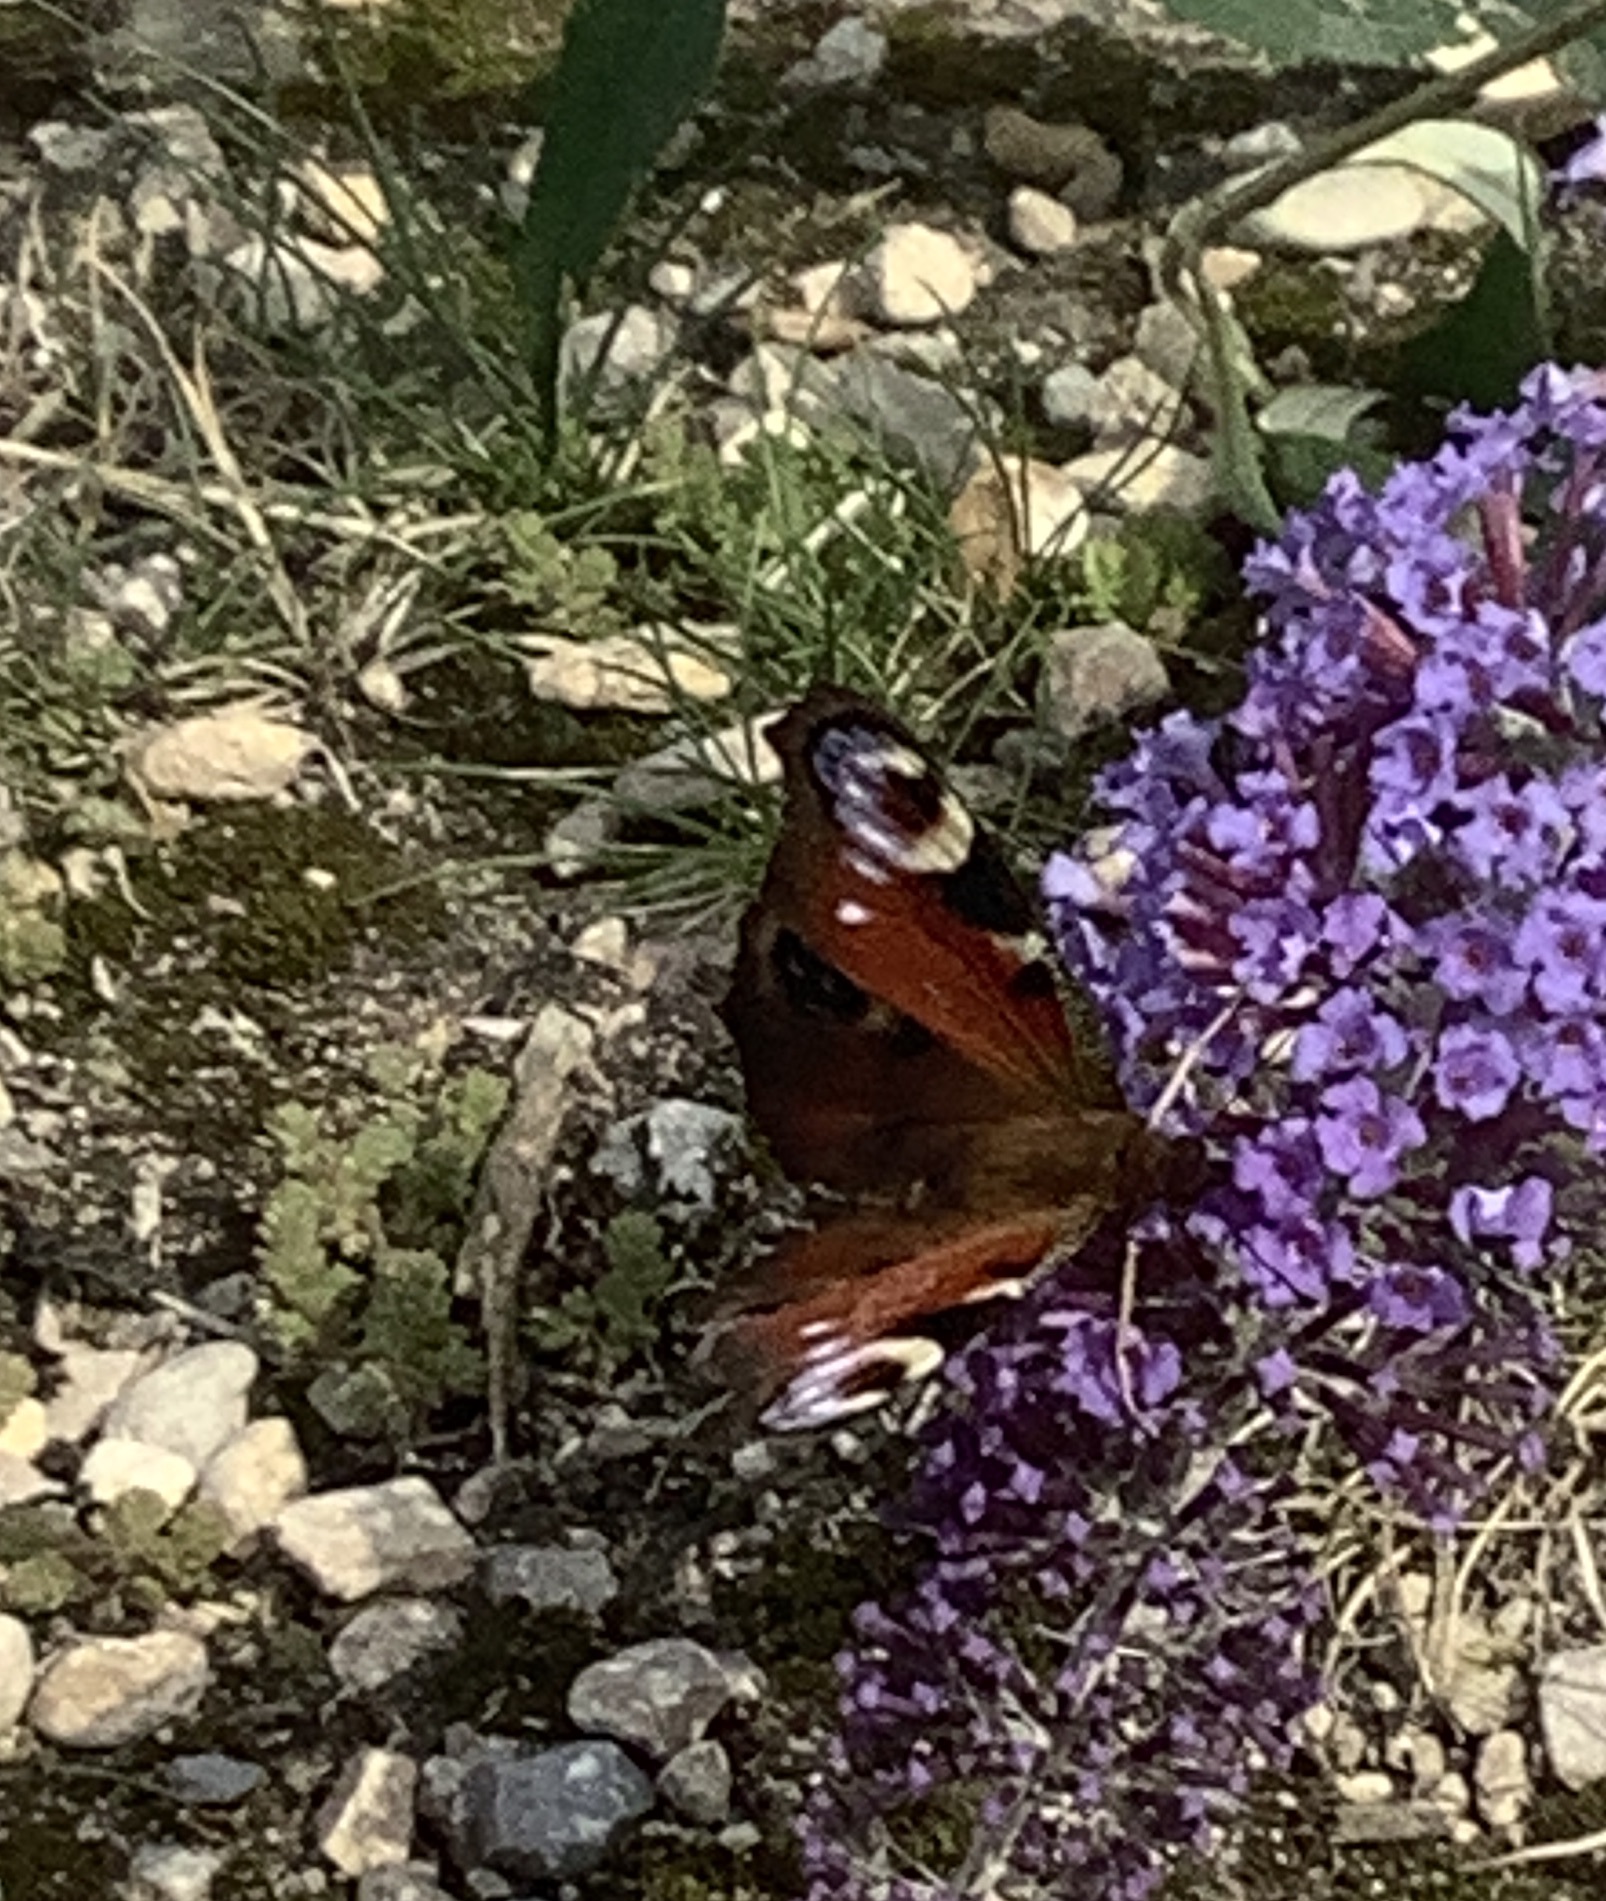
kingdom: Animalia
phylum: Arthropoda
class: Insecta
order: Lepidoptera
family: Nymphalidae
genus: Aglais
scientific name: Aglais io
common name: Peacock
